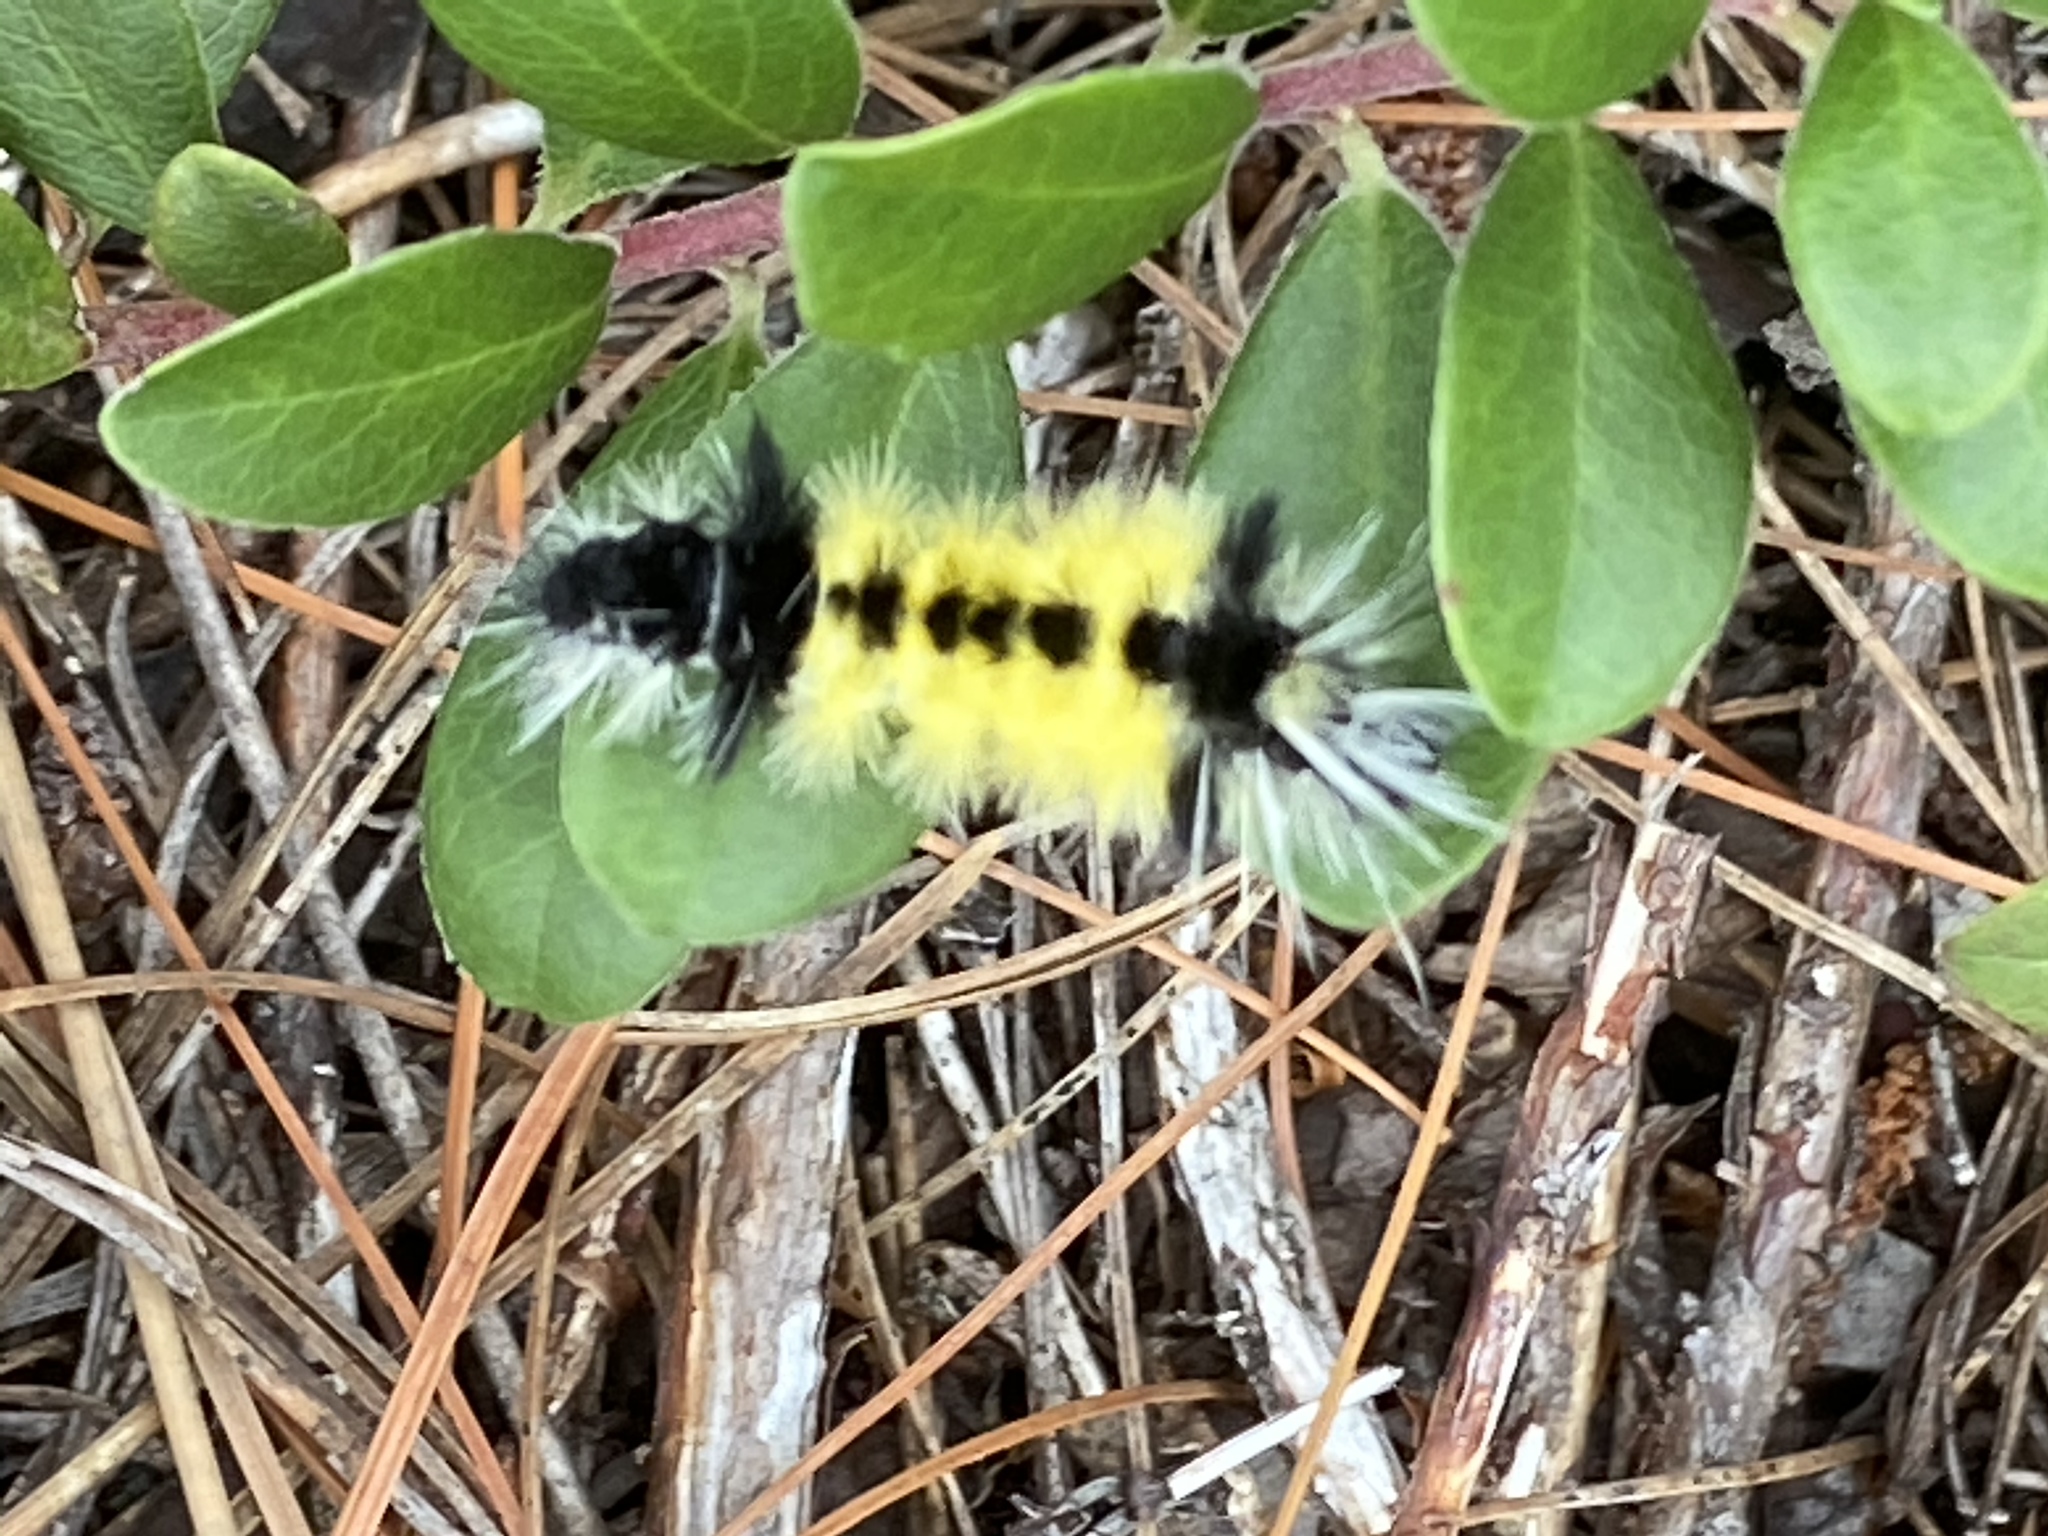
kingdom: Animalia
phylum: Arthropoda
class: Insecta
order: Lepidoptera
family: Erebidae
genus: Lophocampa
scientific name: Lophocampa maculata
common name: Spotted tussock moth
